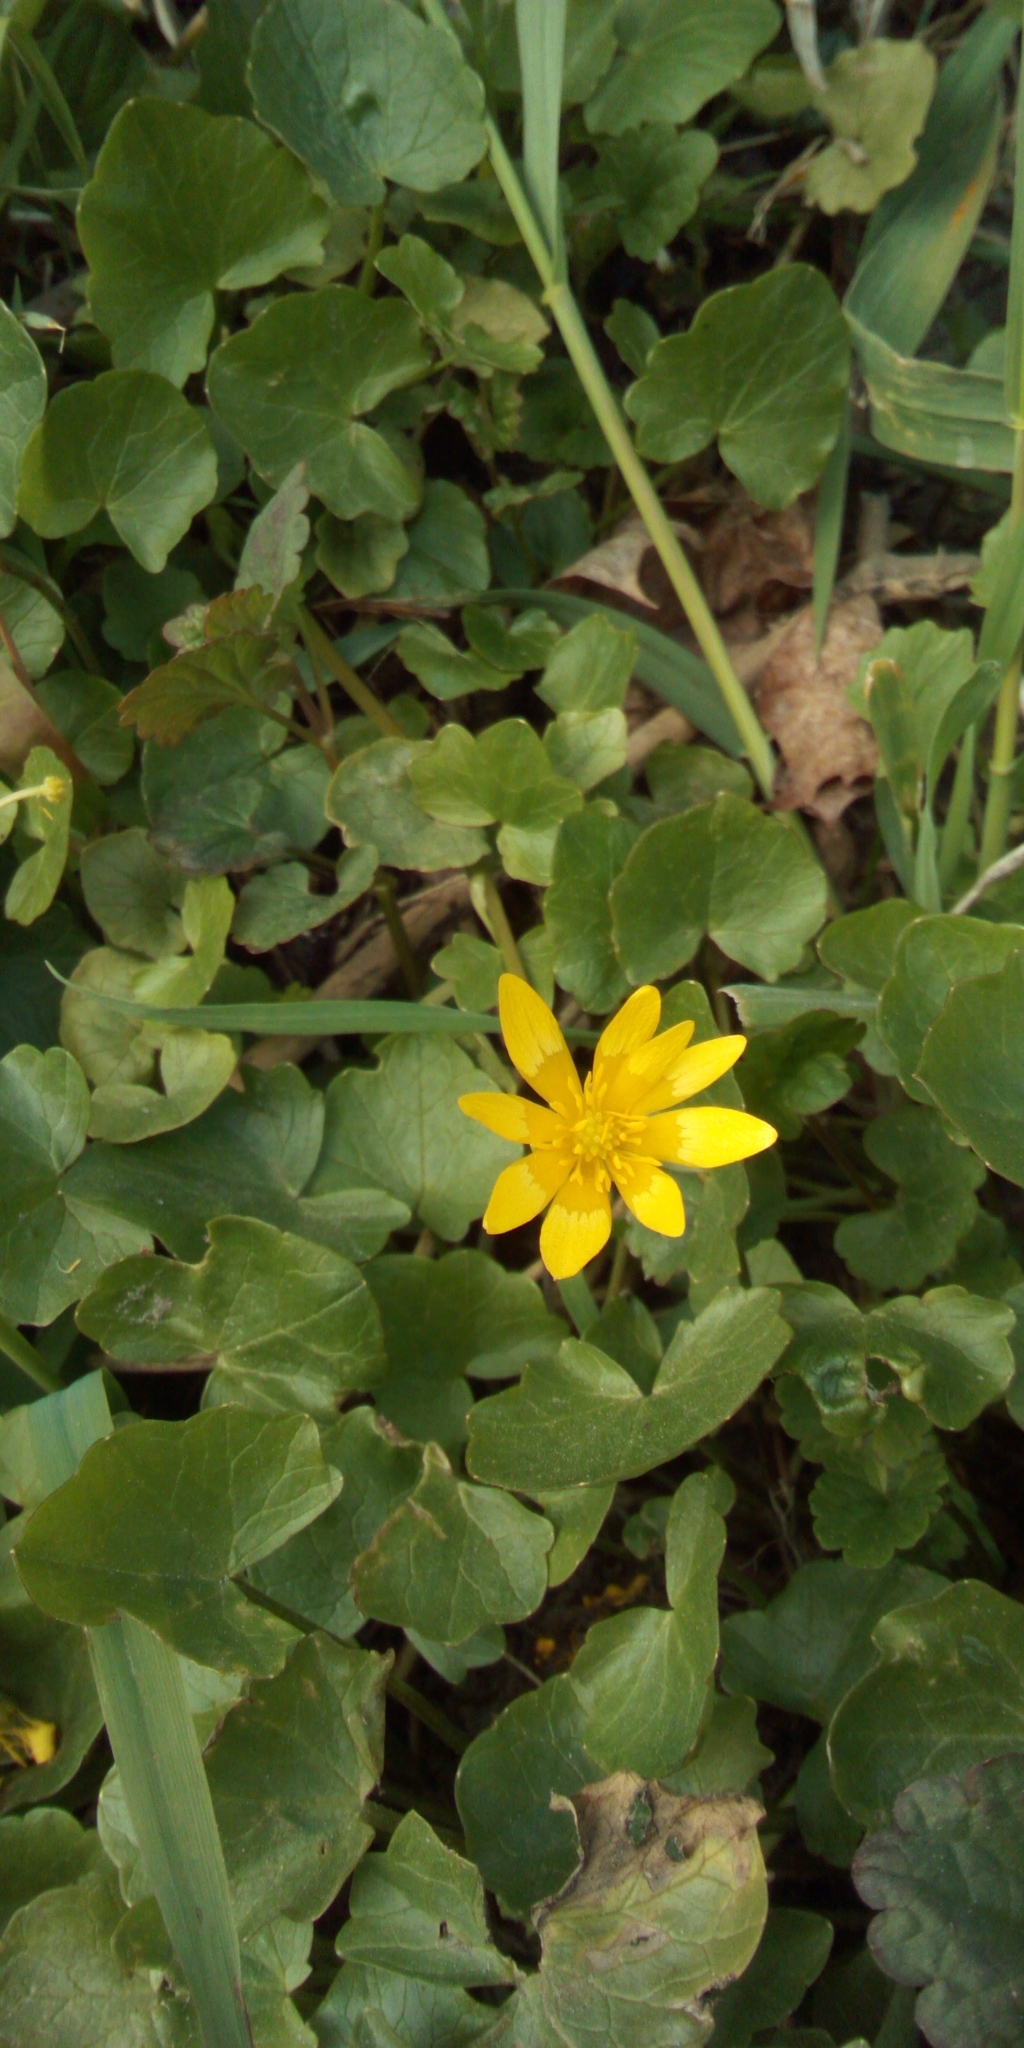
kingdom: Plantae
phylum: Tracheophyta
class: Magnoliopsida
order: Ranunculales
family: Ranunculaceae
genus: Ficaria
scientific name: Ficaria verna
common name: Lesser celandine
